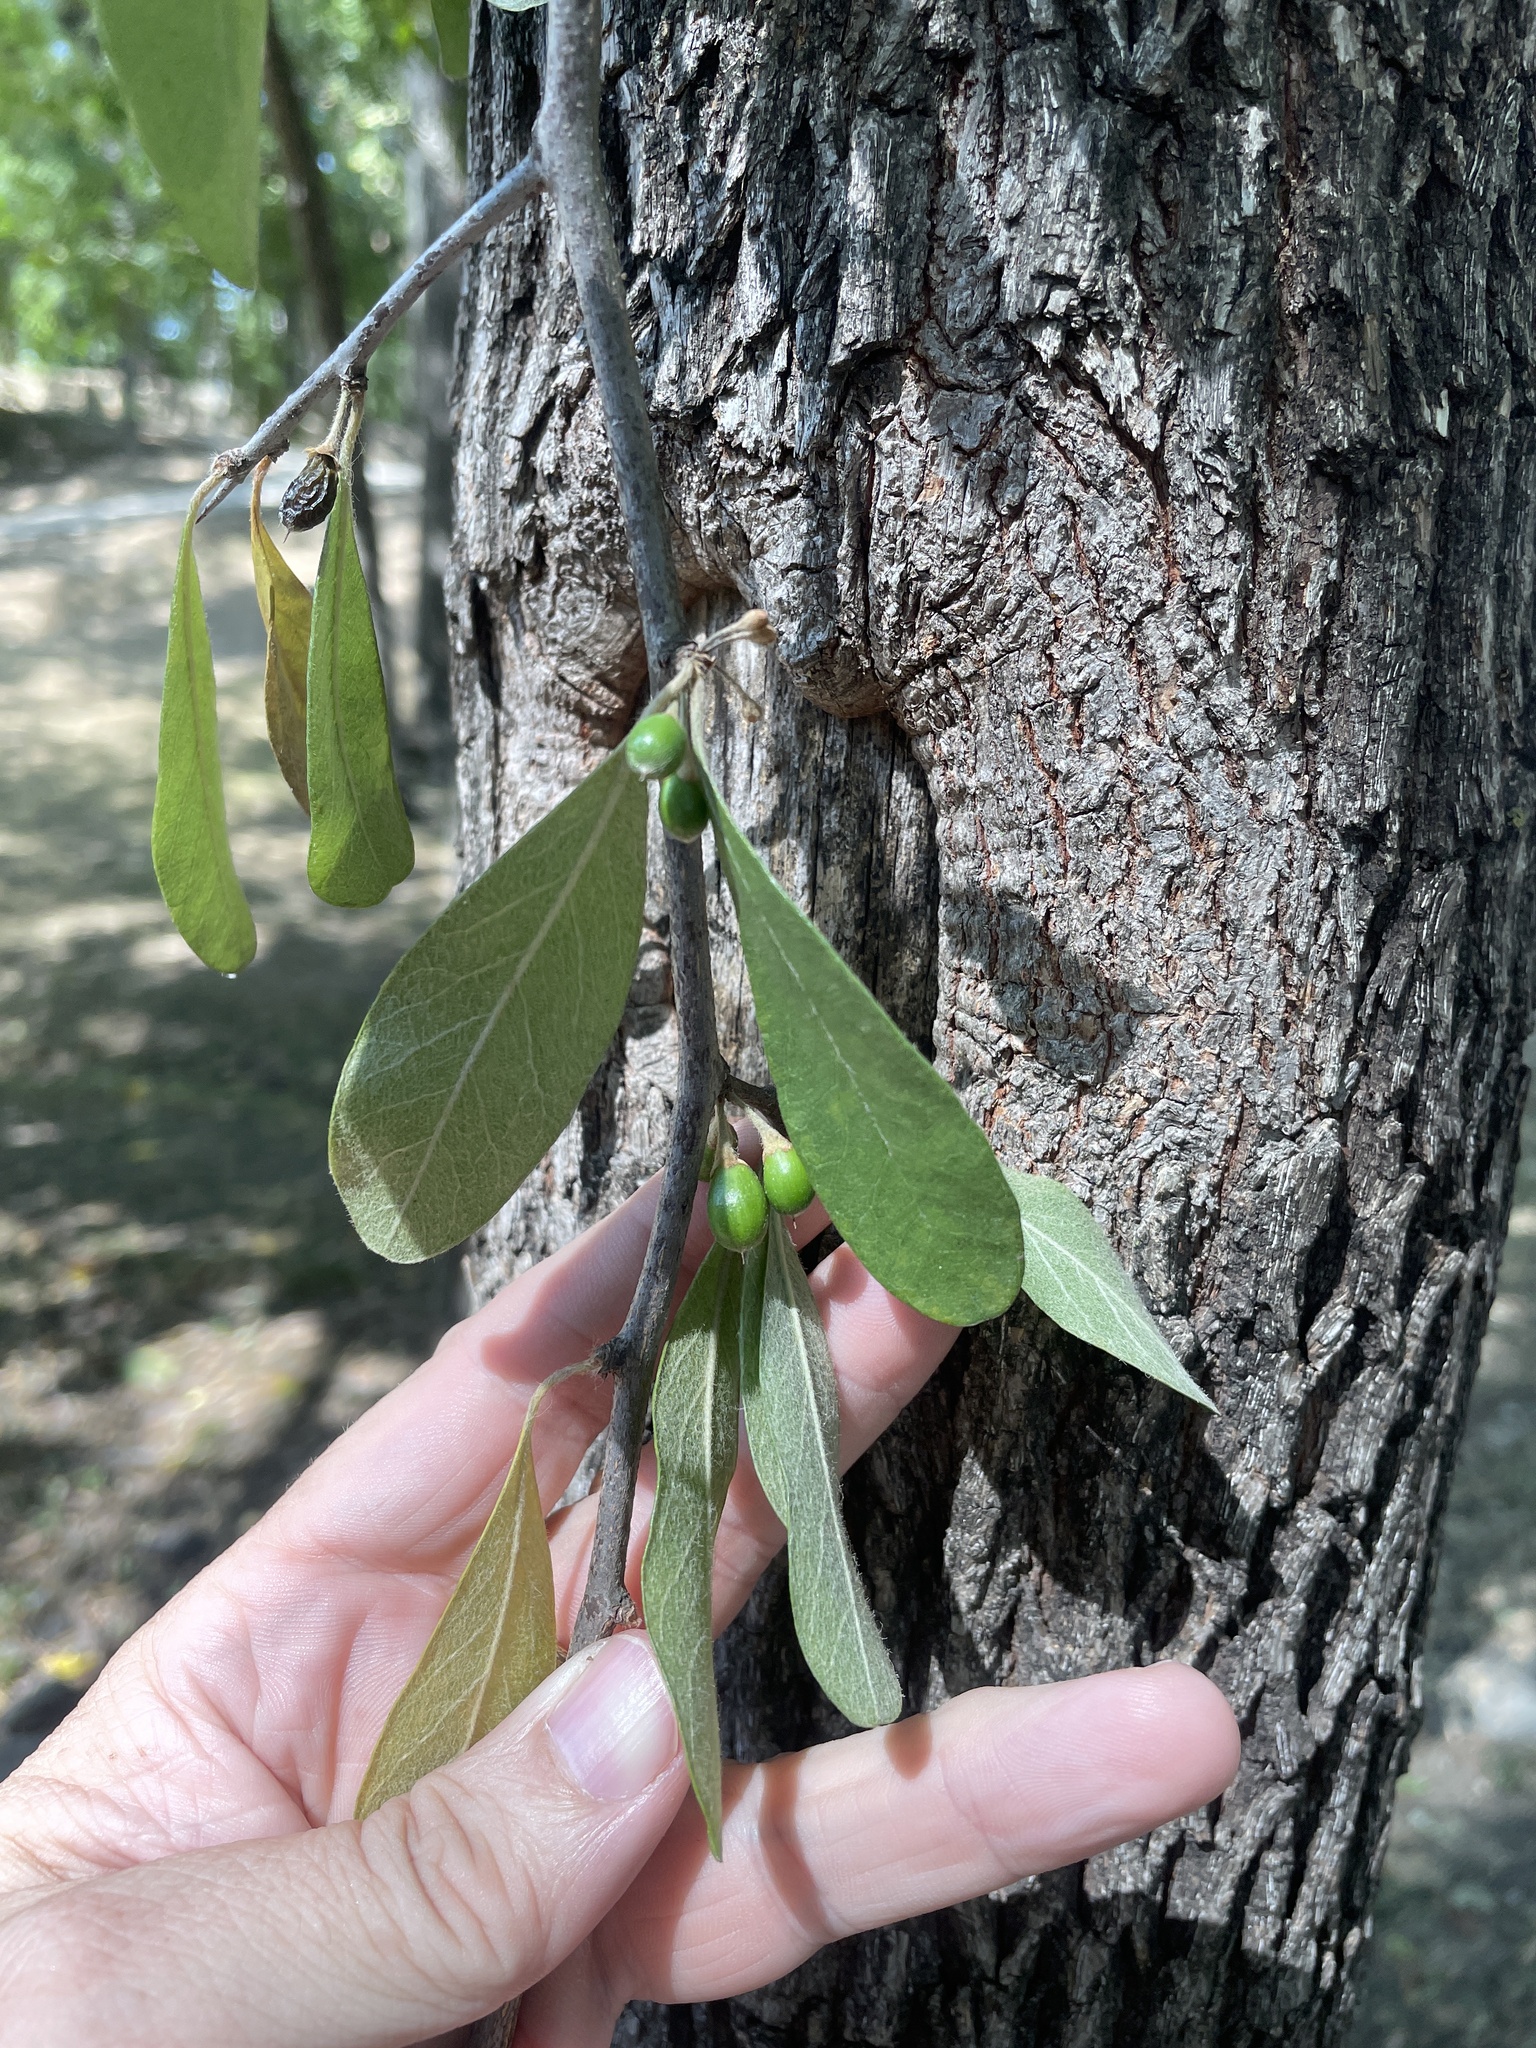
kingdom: Plantae
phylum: Tracheophyta
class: Magnoliopsida
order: Ericales
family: Sapotaceae
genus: Sideroxylon
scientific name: Sideroxylon lanuginosum
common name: Chittamwood
